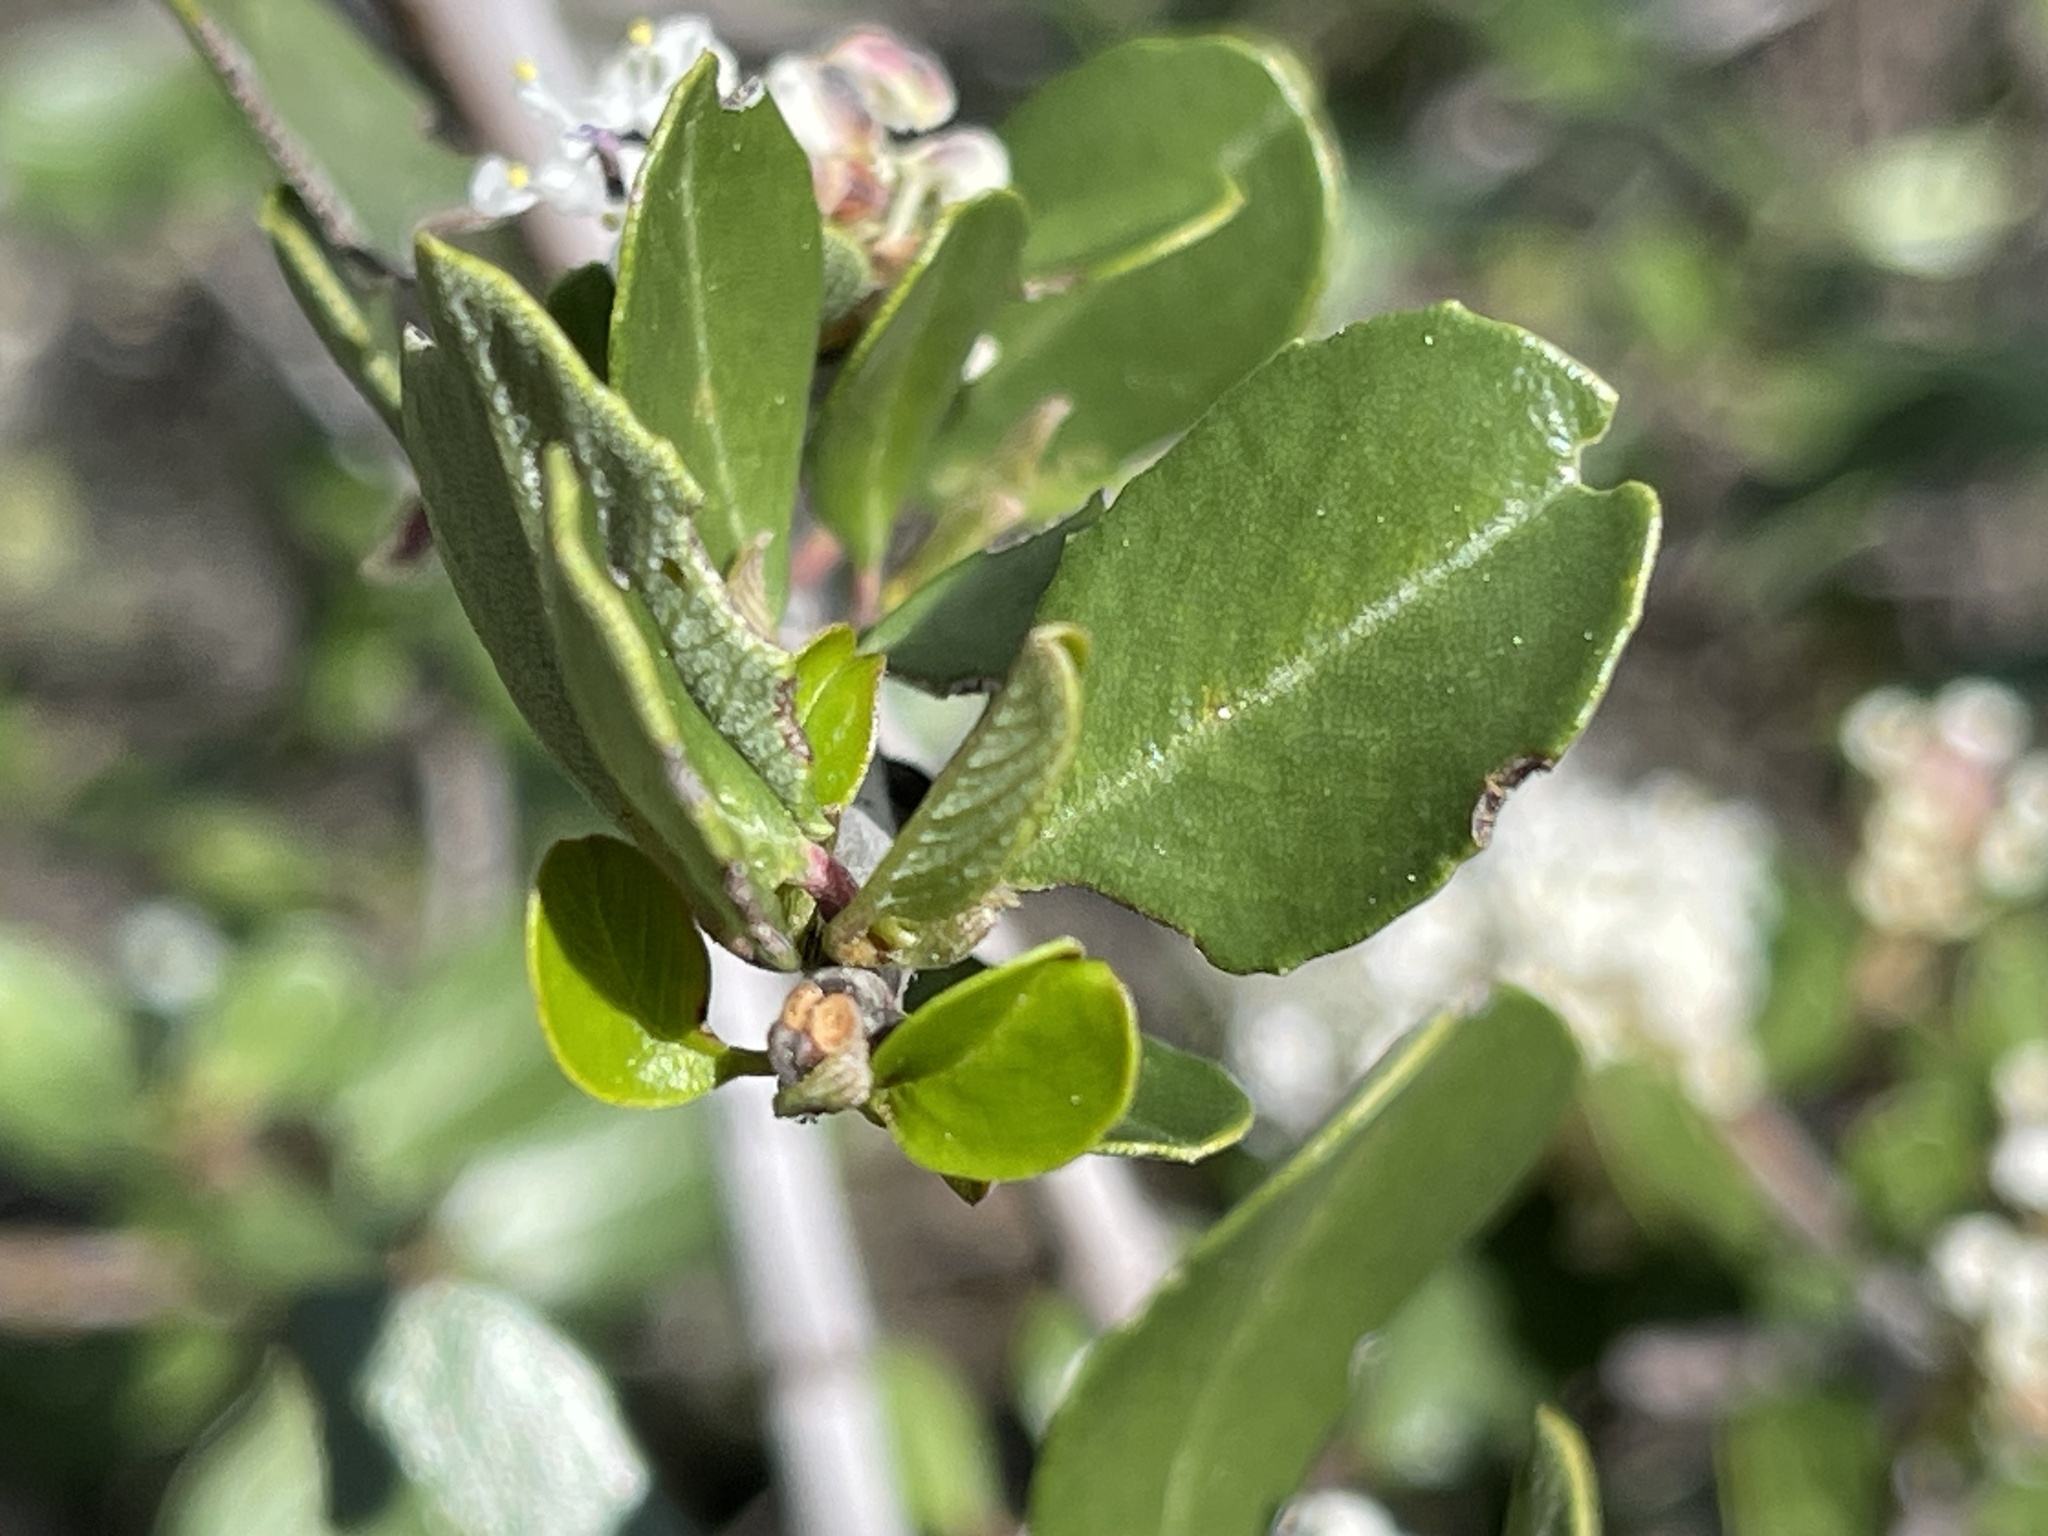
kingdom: Plantae
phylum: Tracheophyta
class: Magnoliopsida
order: Rosales
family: Rhamnaceae
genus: Ceanothus
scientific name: Ceanothus cuneatus
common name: Cuneate ceanothus
